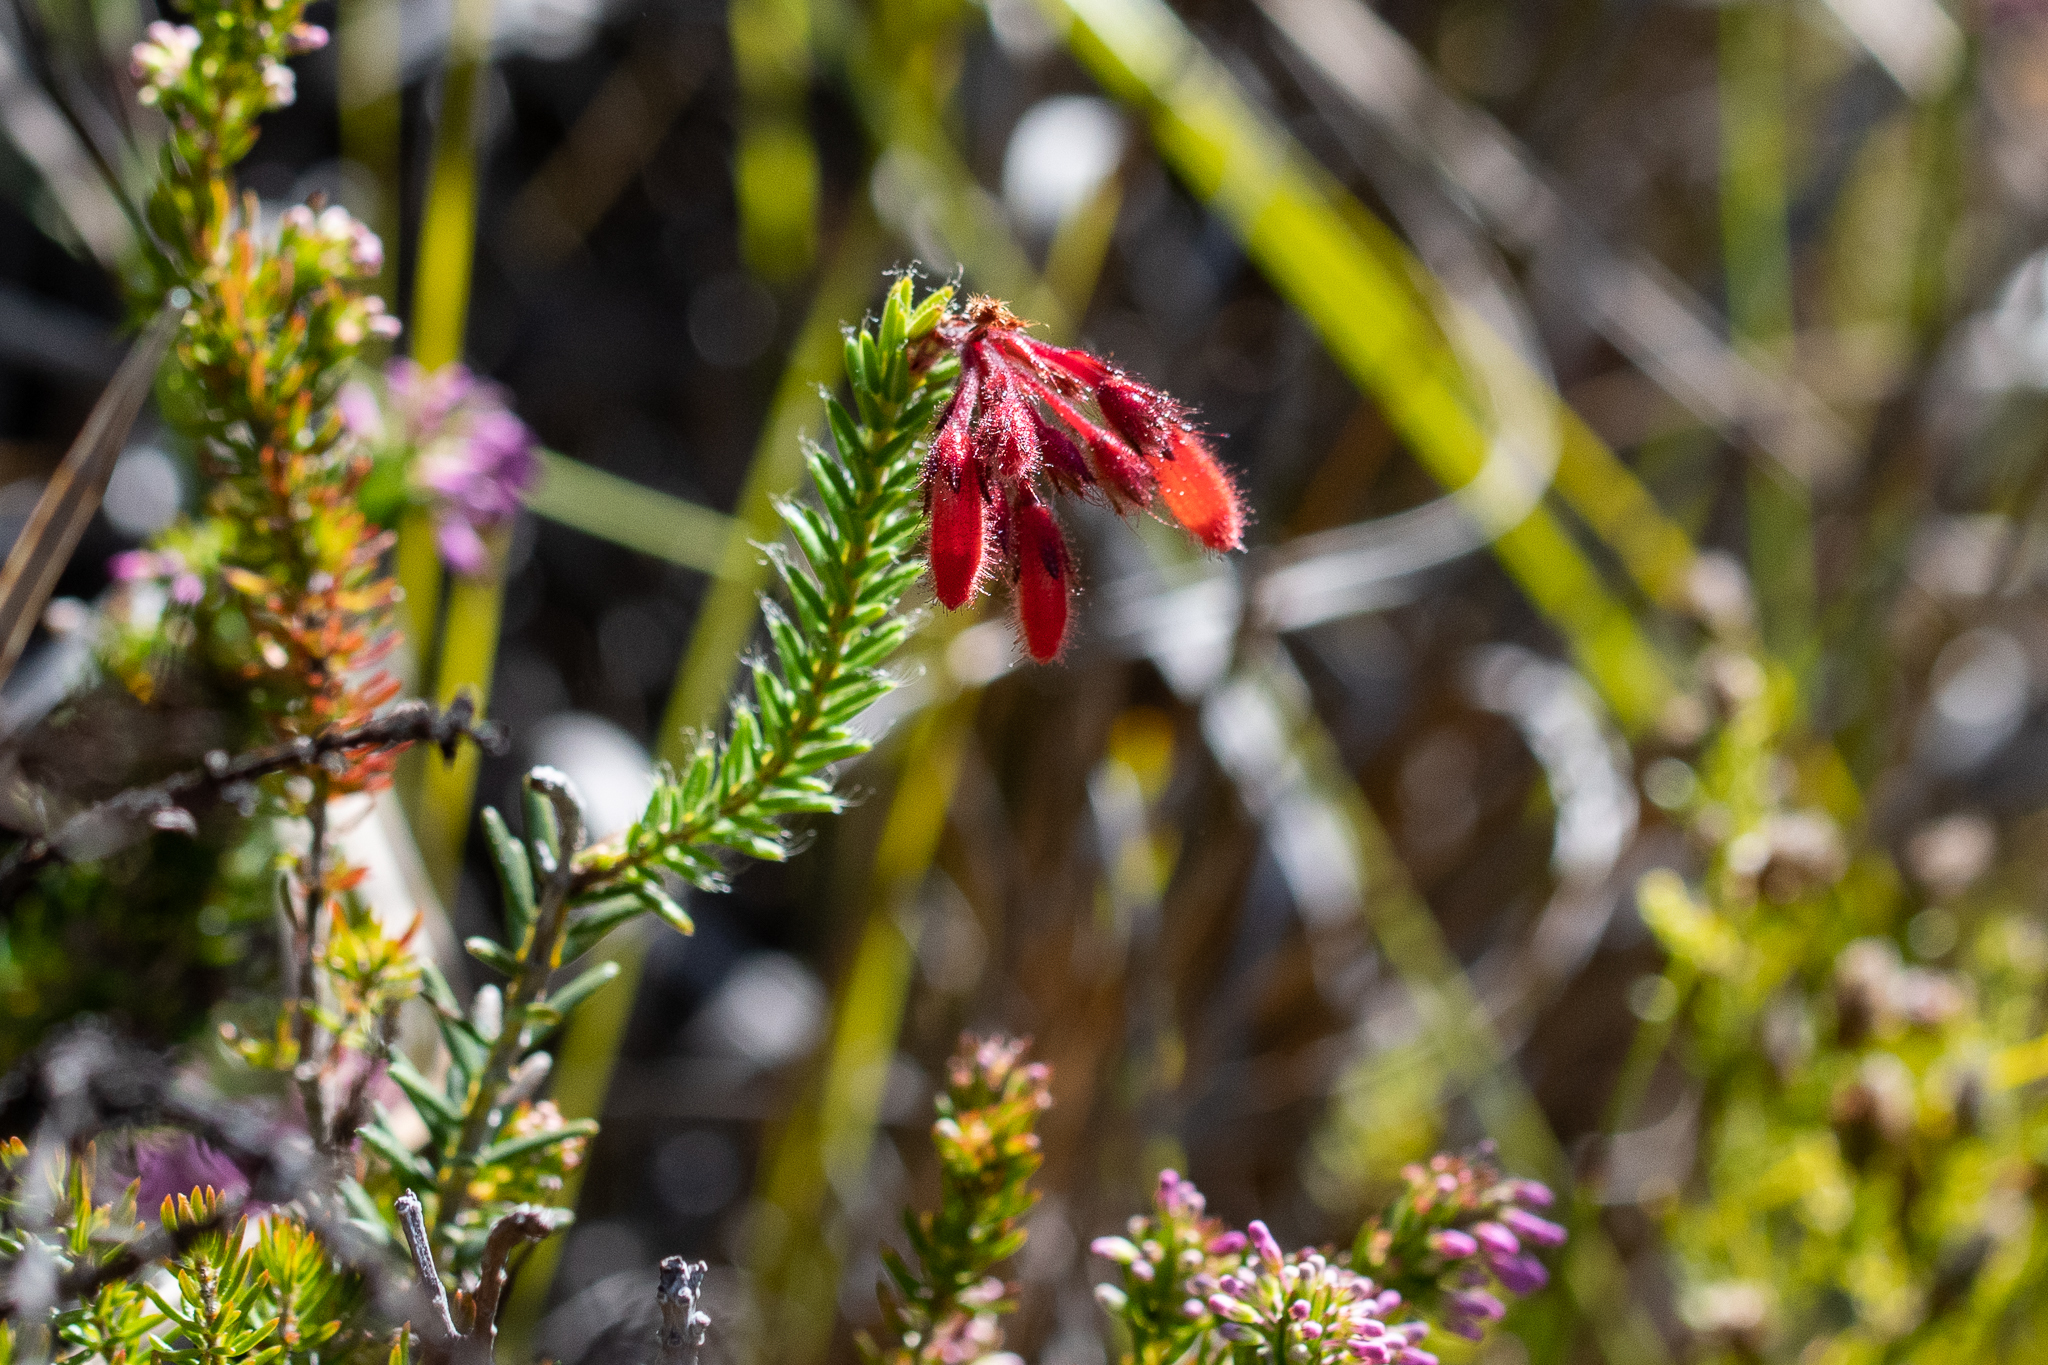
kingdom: Plantae
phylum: Tracheophyta
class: Magnoliopsida
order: Ericales
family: Ericaceae
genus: Erica
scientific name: Erica cerinthoides
